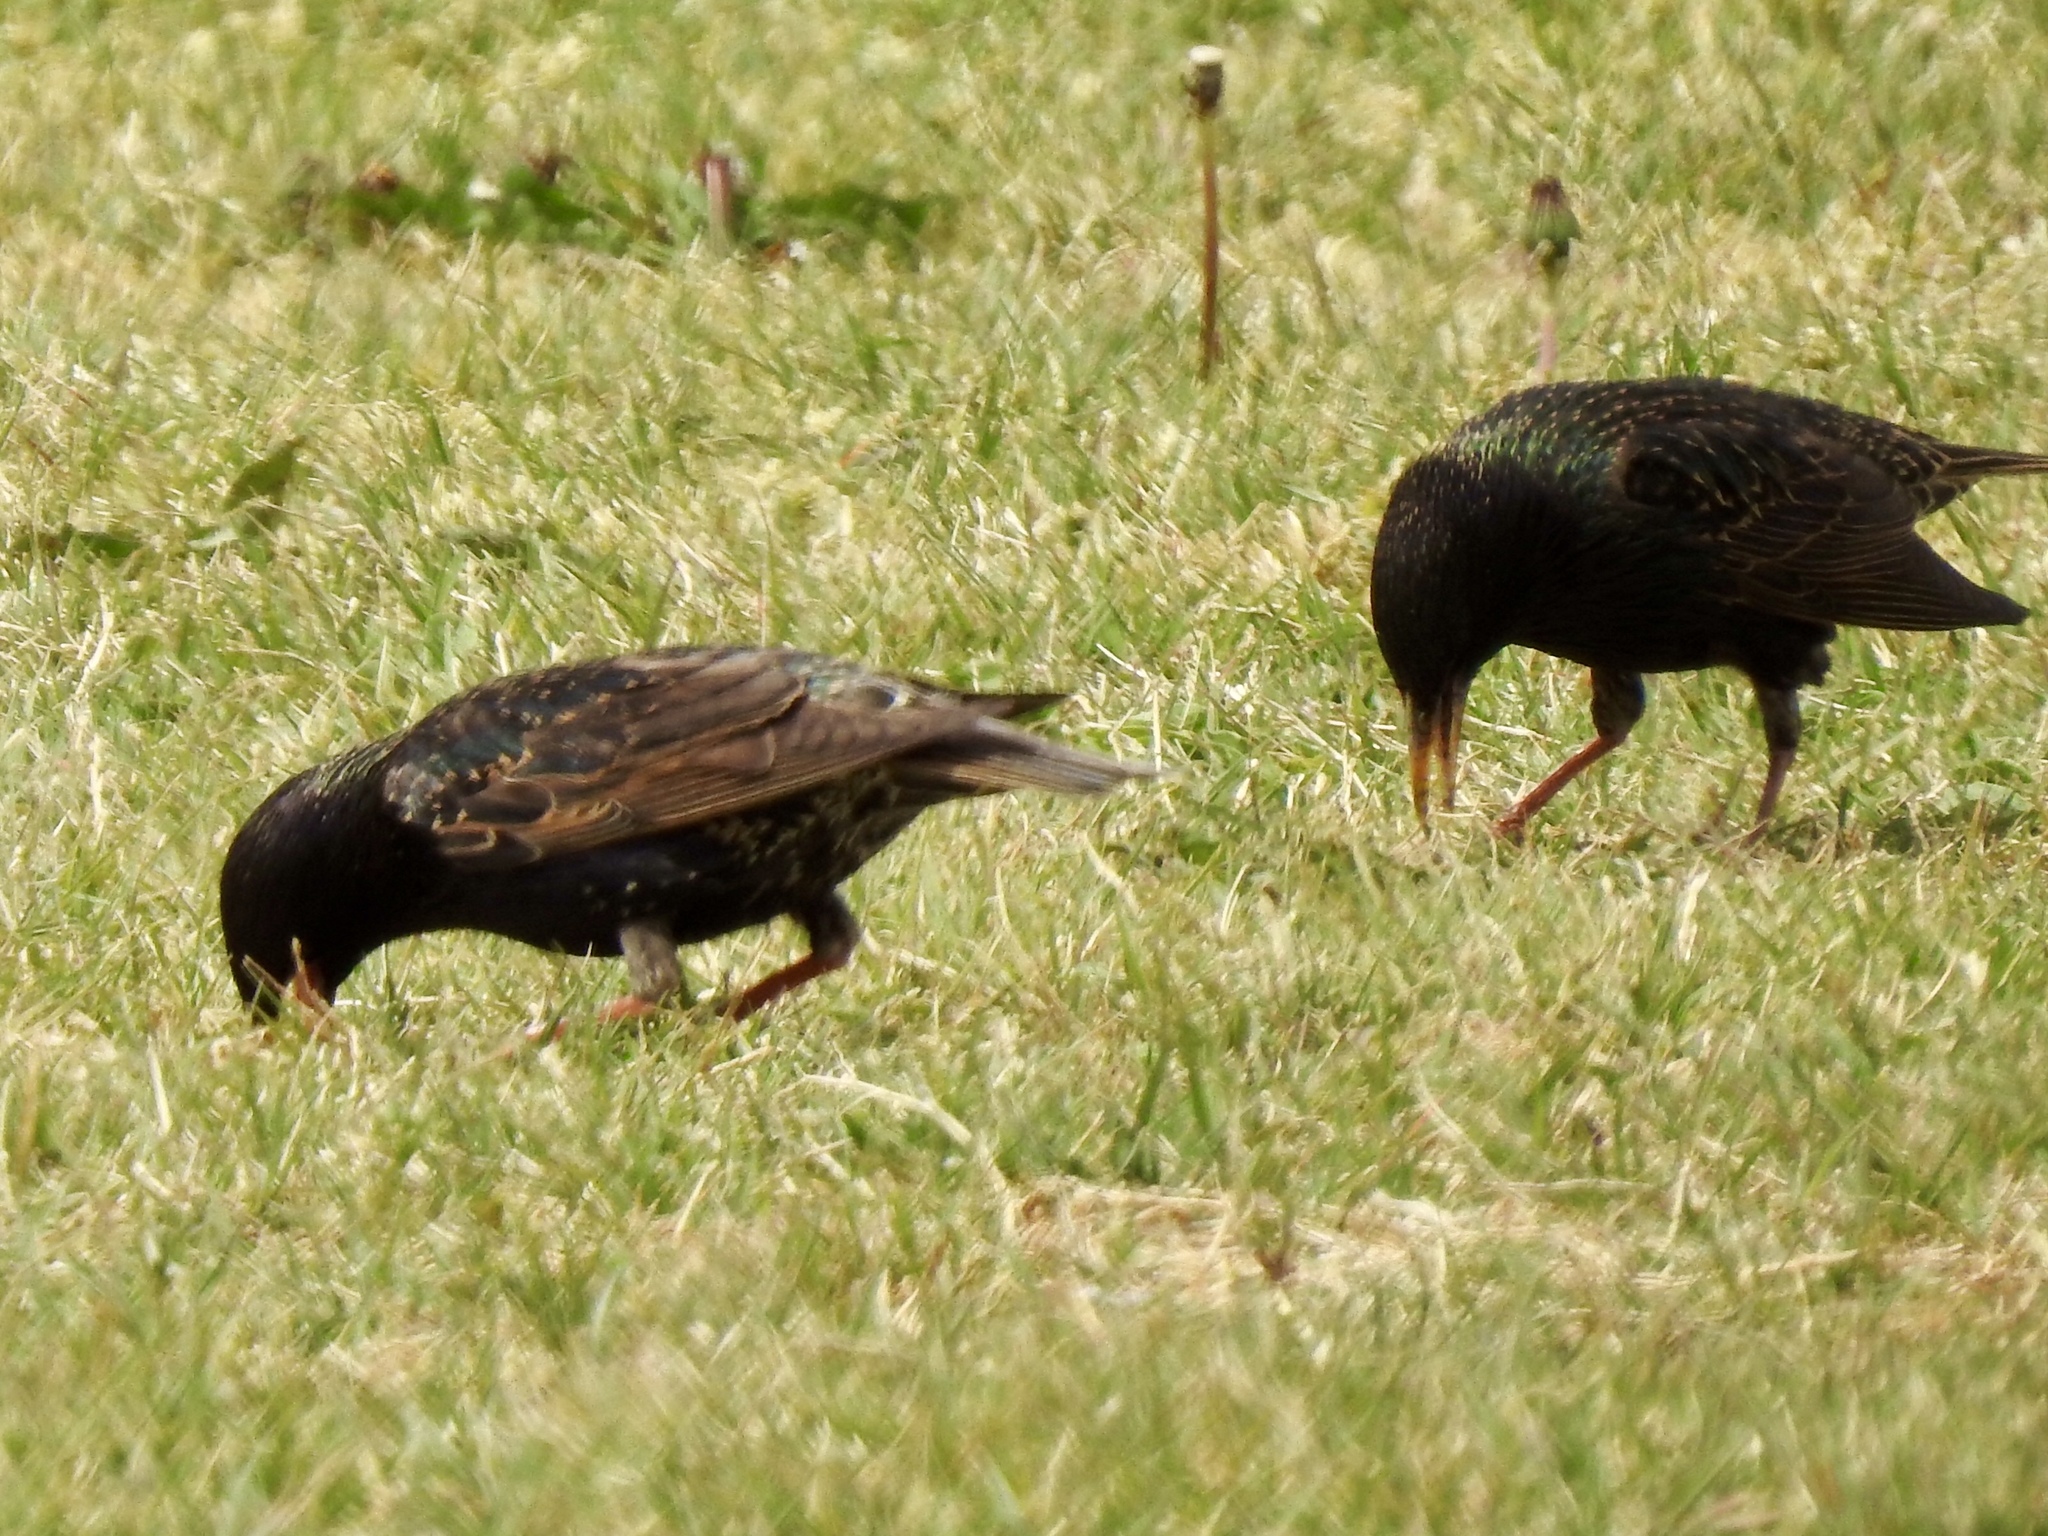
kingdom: Animalia
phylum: Chordata
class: Aves
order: Passeriformes
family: Sturnidae
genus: Sturnus
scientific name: Sturnus vulgaris
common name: Common starling
